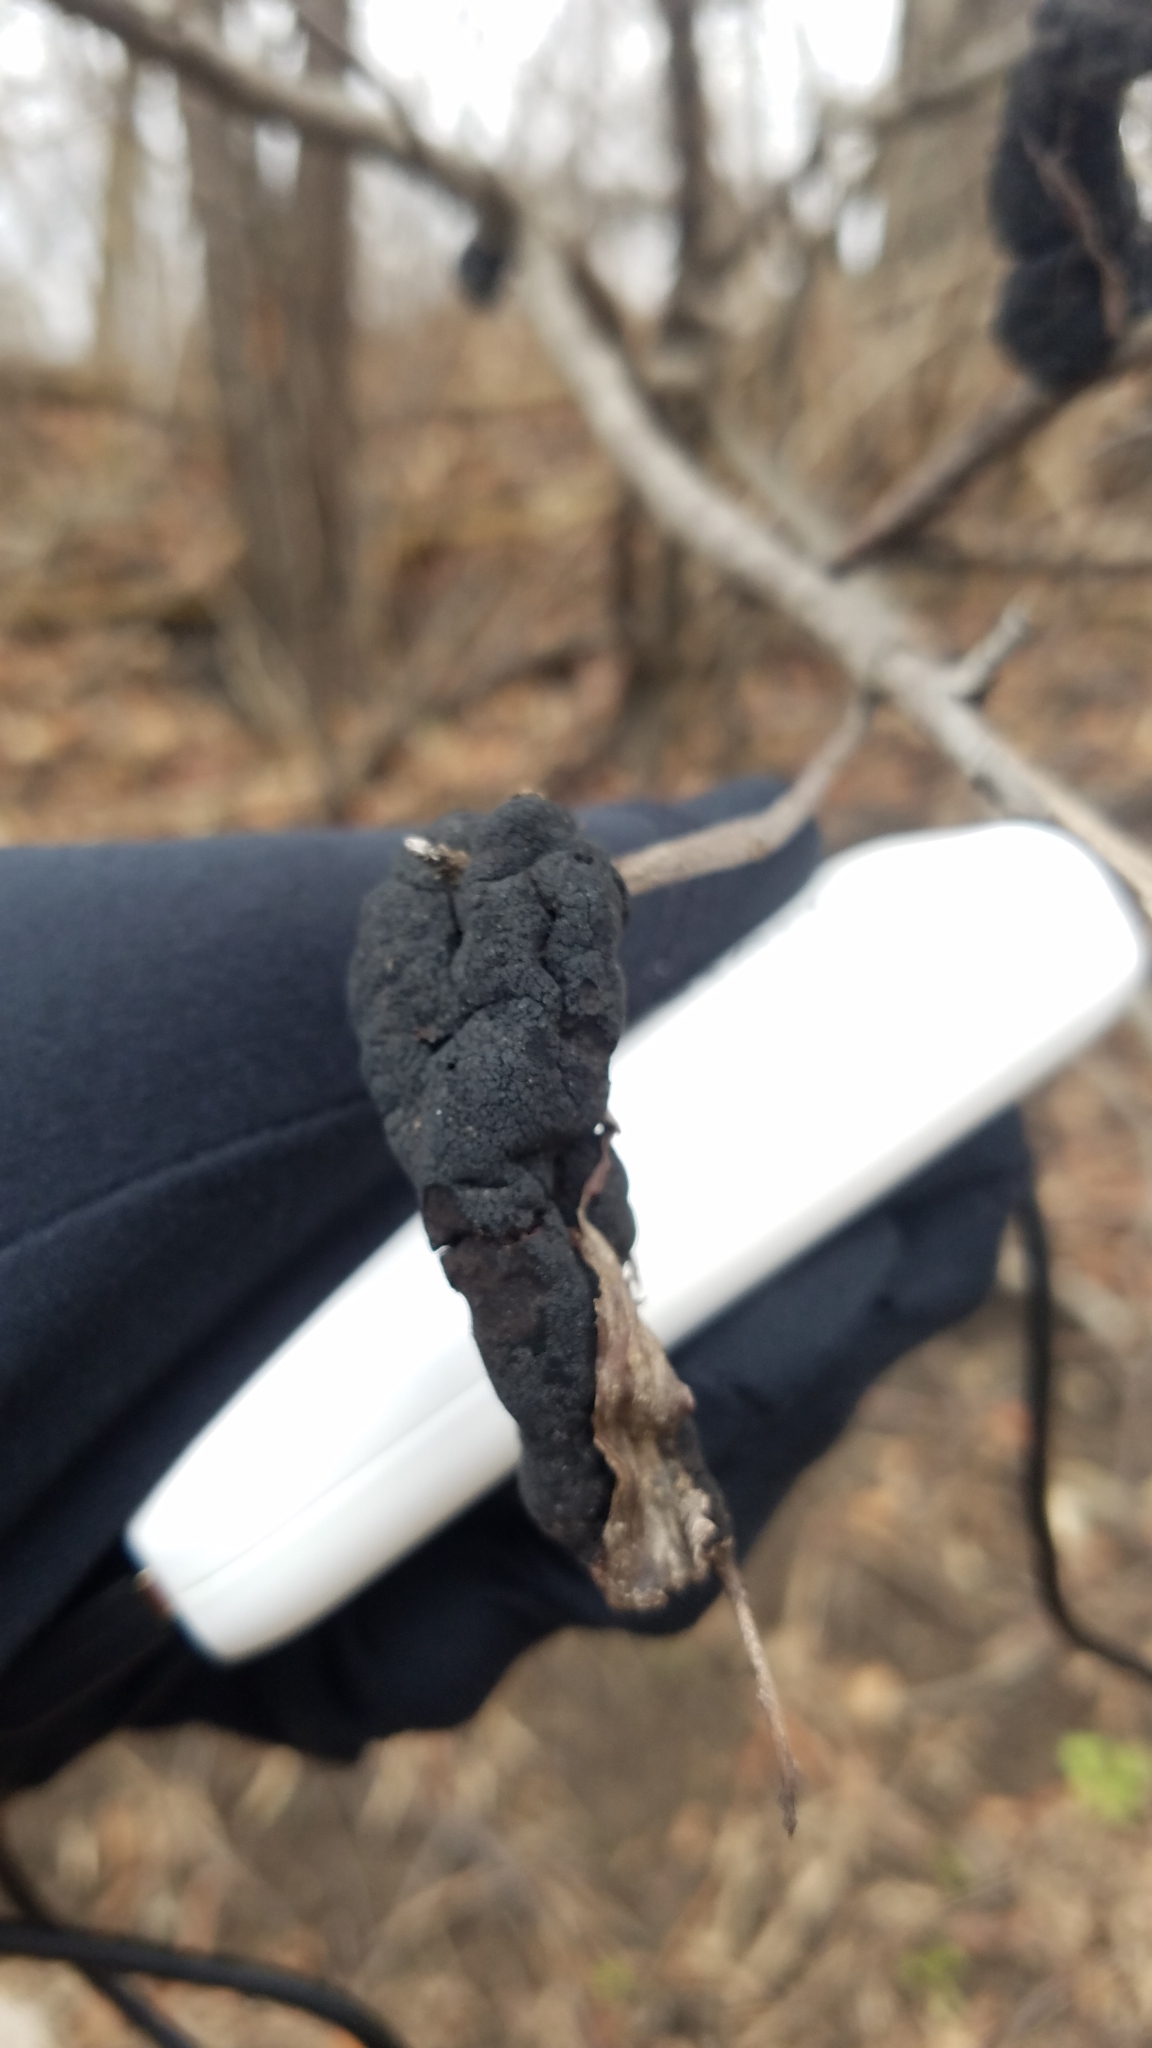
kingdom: Fungi
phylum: Ascomycota
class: Dothideomycetes
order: Venturiales
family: Venturiaceae
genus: Apiosporina
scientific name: Apiosporina morbosa
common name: Black knot
